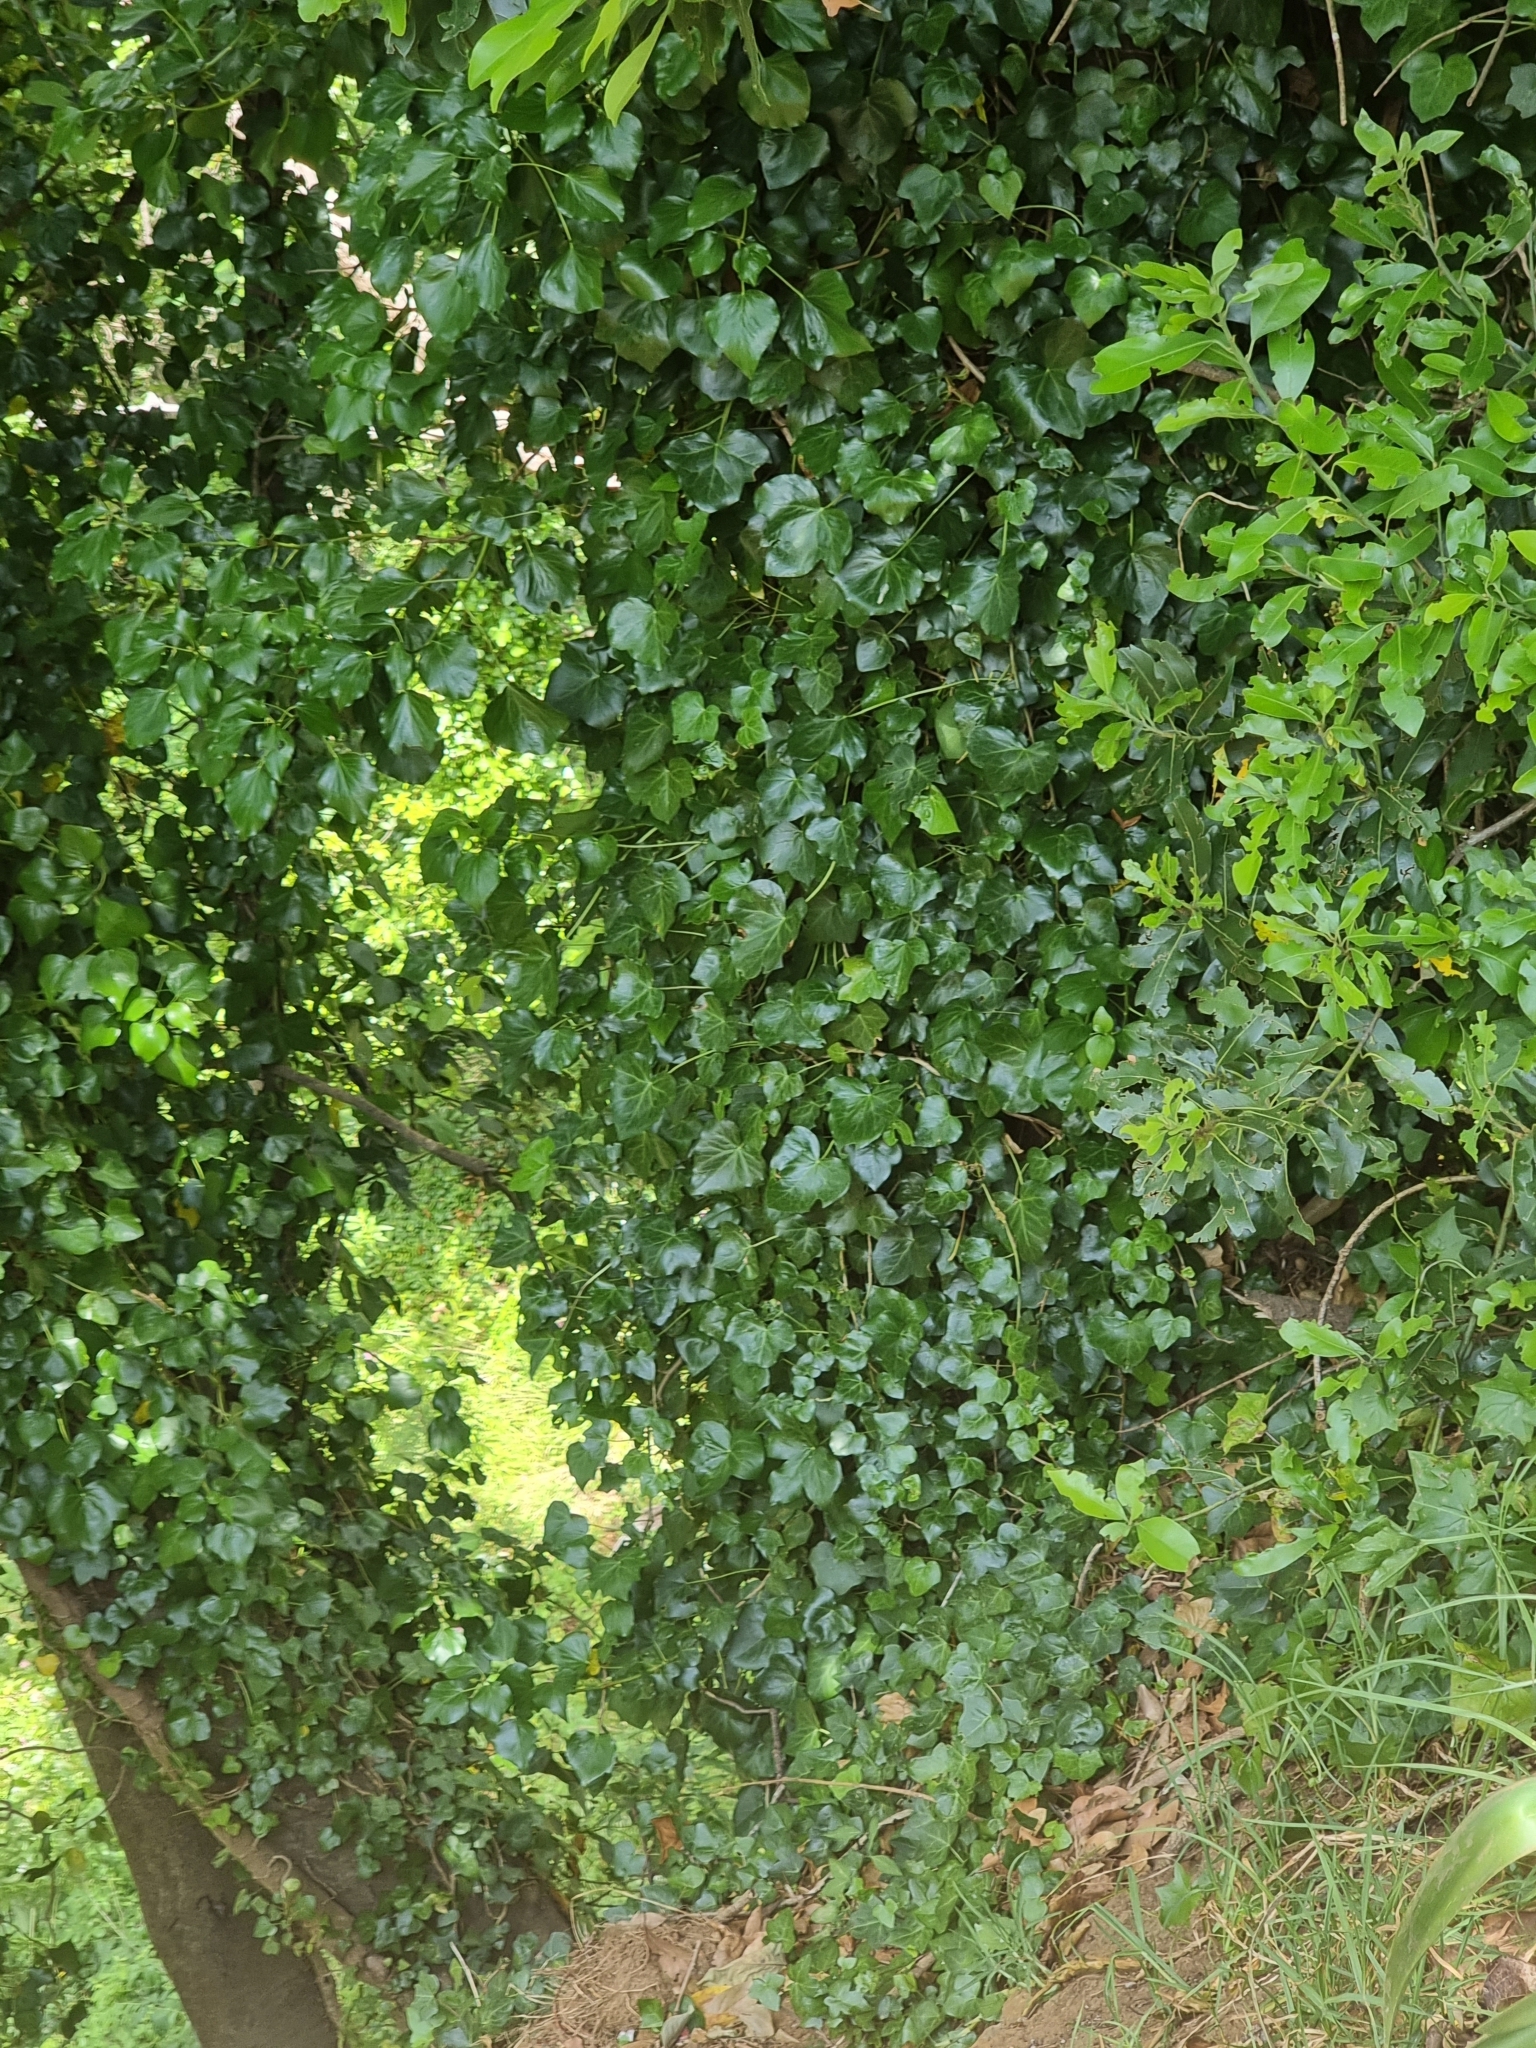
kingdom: Plantae
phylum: Tracheophyta
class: Magnoliopsida
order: Apiales
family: Araliaceae
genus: Hedera
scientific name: Hedera maderensis
